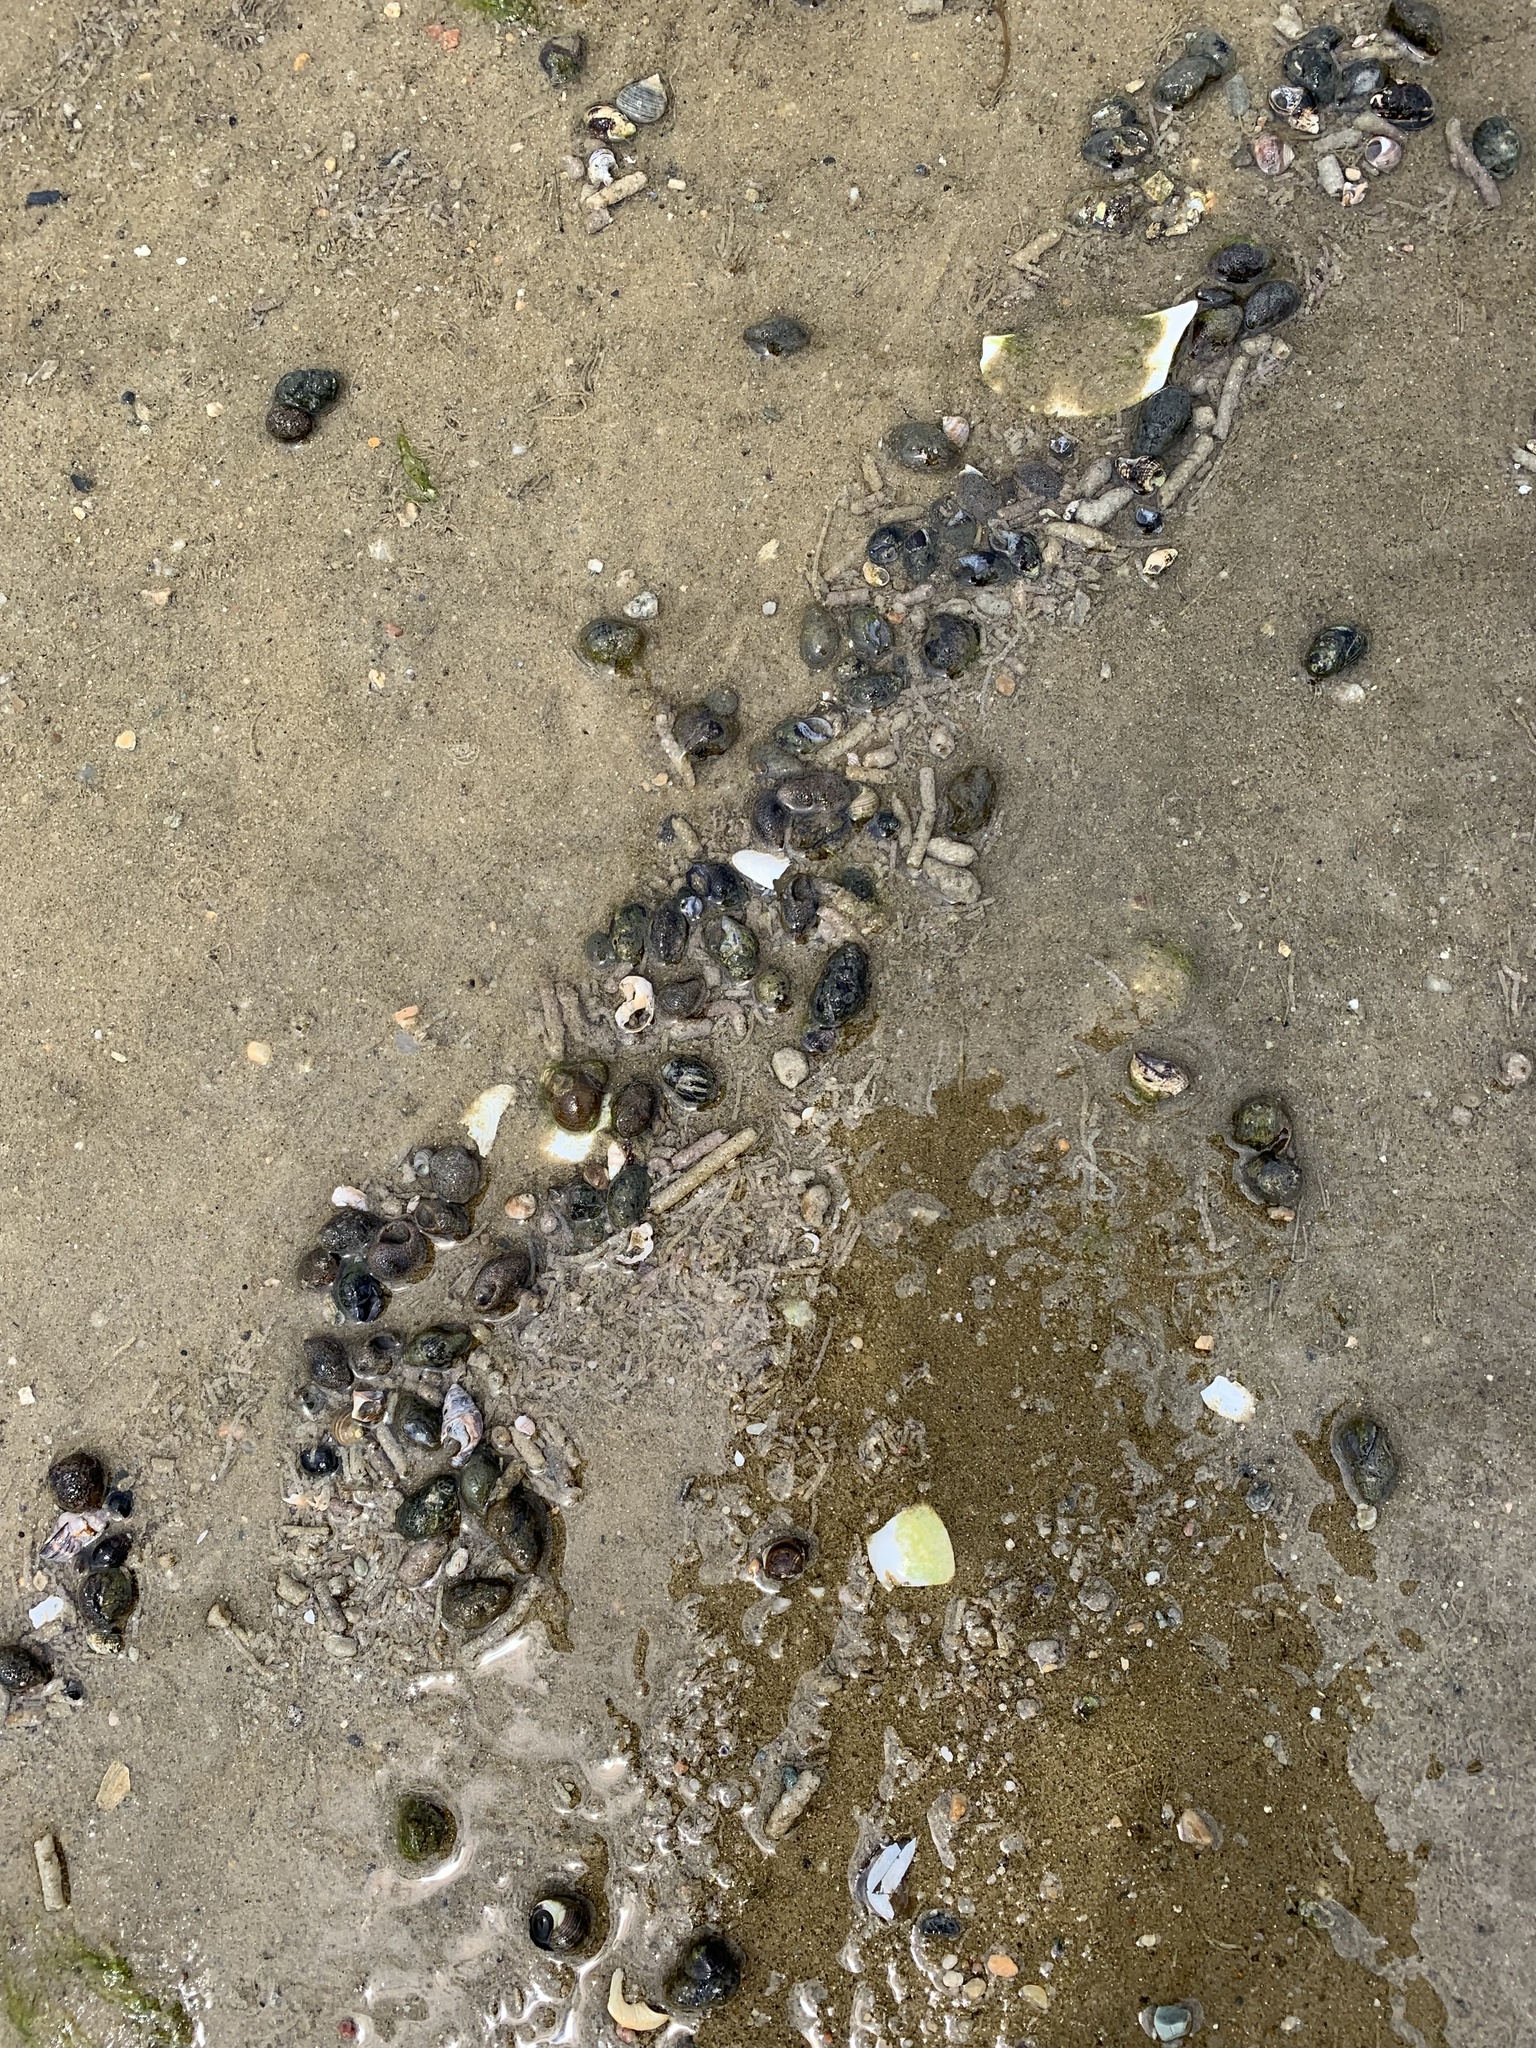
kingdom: Animalia
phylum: Mollusca
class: Gastropoda
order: Neogastropoda
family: Nassariidae
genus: Ilyanassa
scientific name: Ilyanassa obsoleta
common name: Eastern mudsnail
